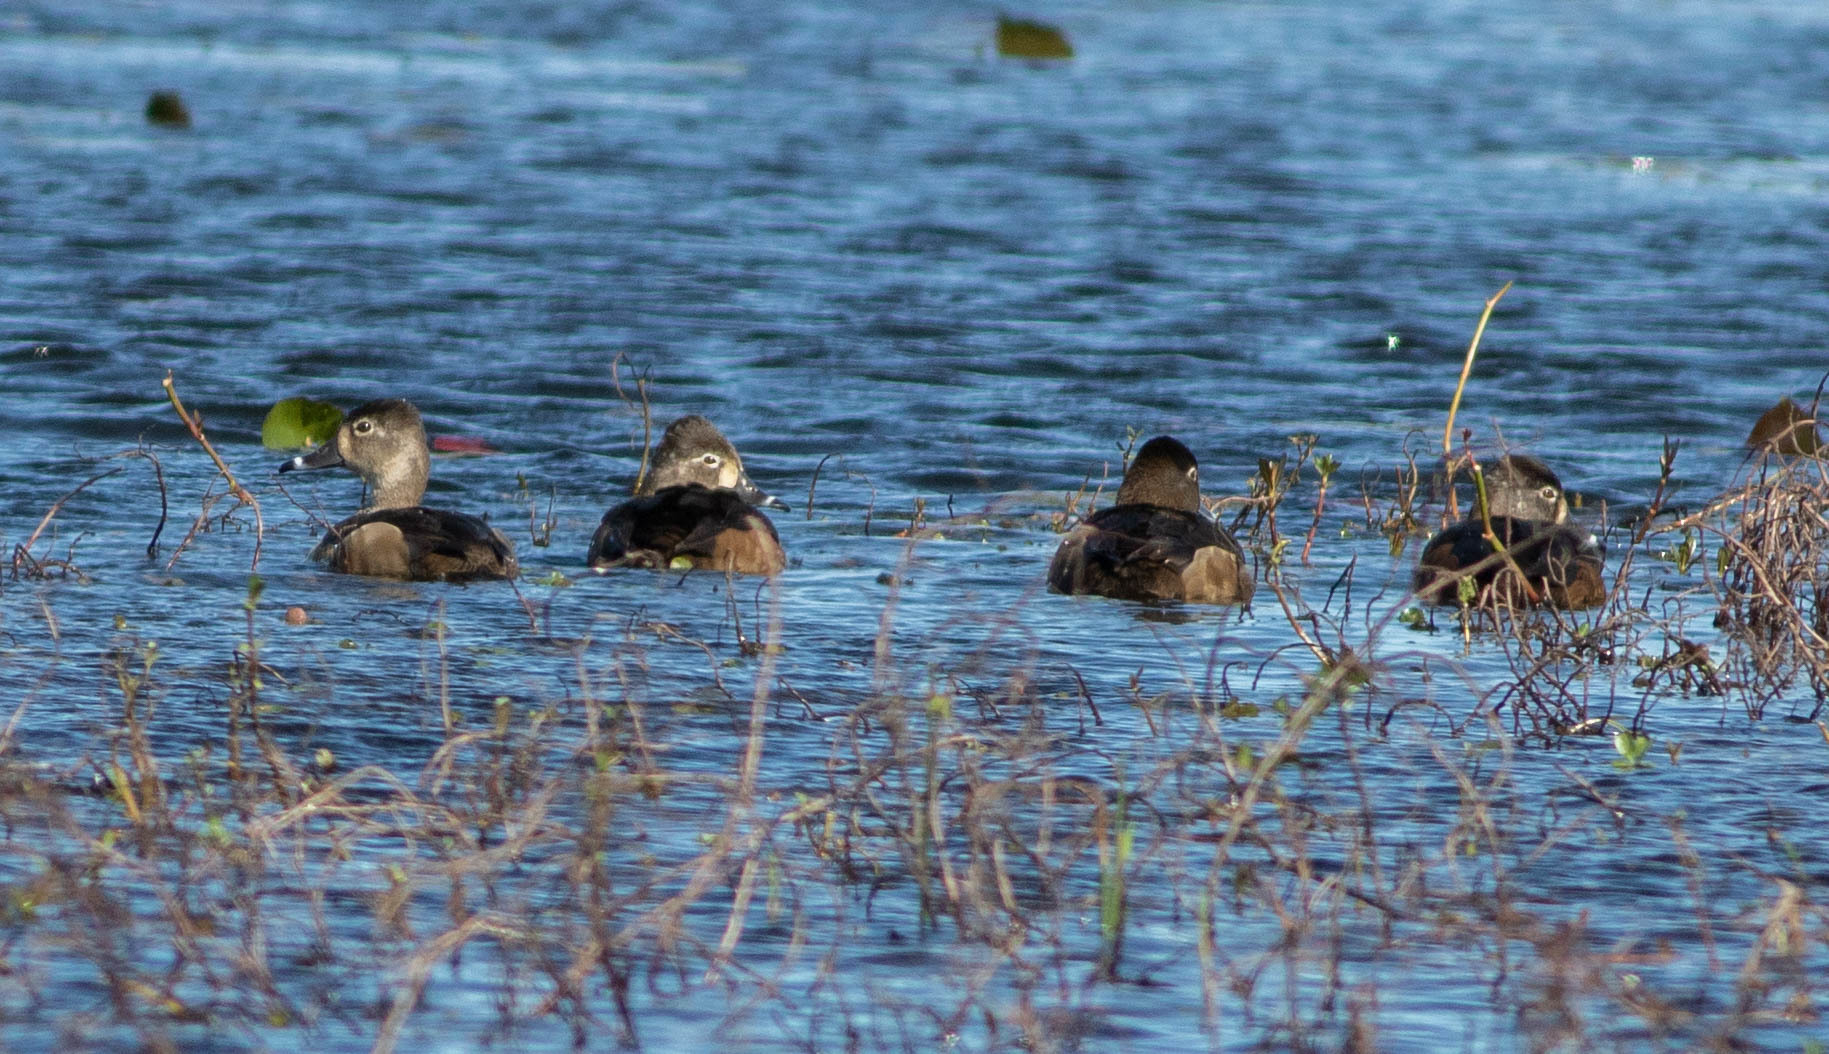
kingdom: Animalia
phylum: Chordata
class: Aves
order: Anseriformes
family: Anatidae
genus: Aythya
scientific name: Aythya collaris
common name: Ring-necked duck
